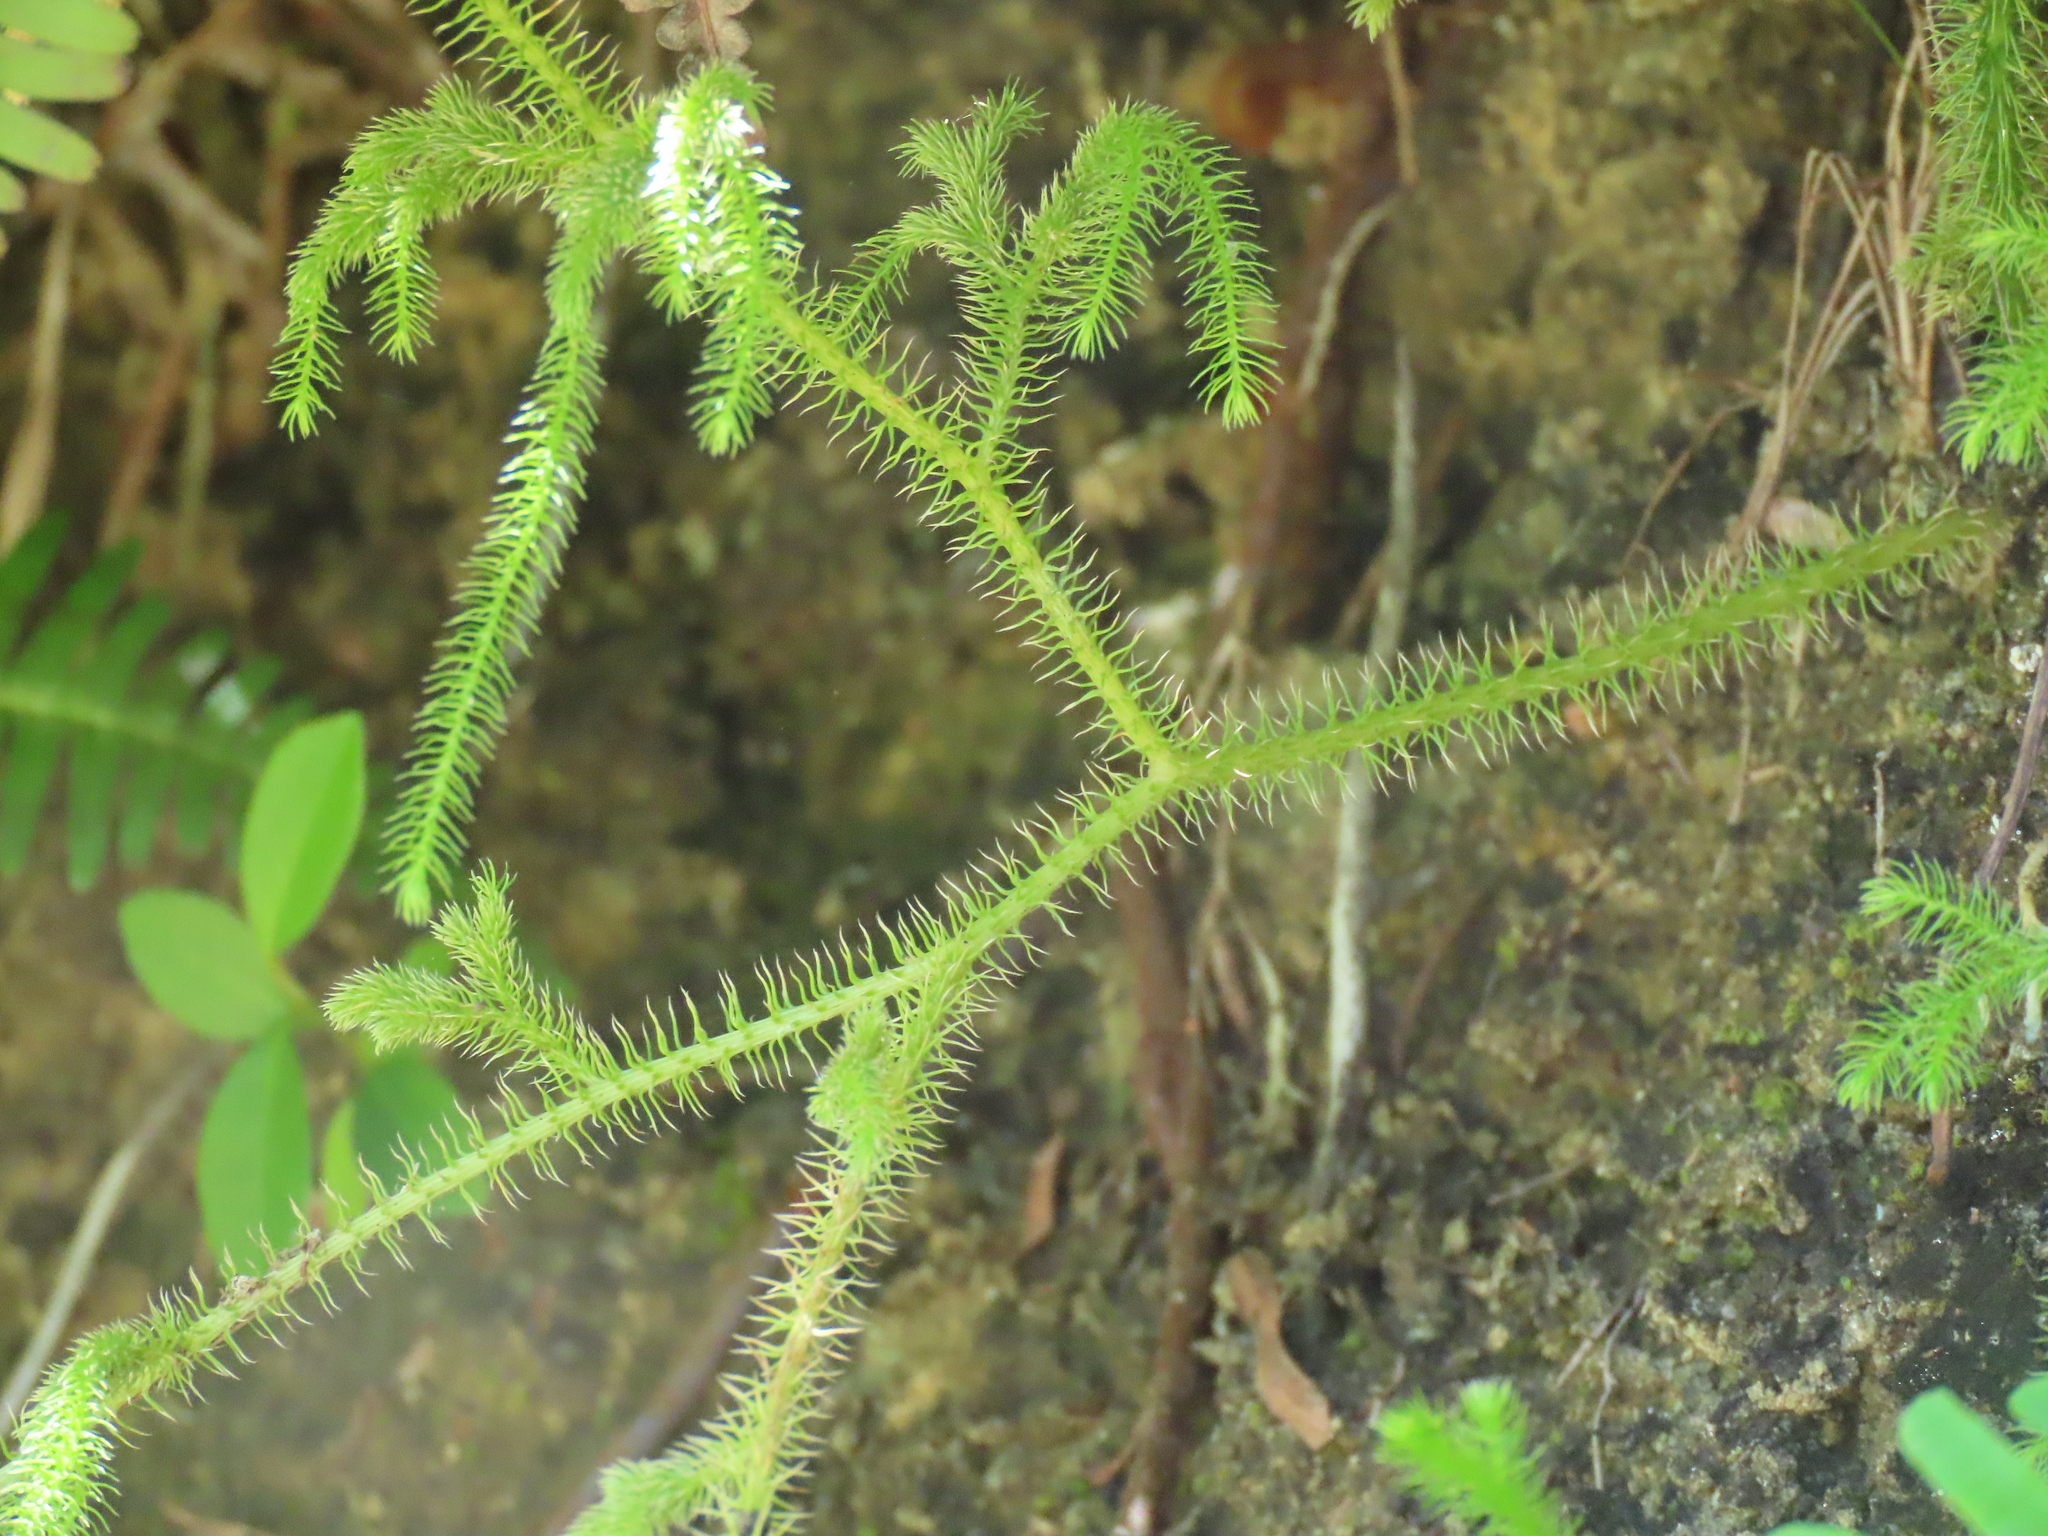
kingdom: Plantae
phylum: Tracheophyta
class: Lycopodiopsida
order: Lycopodiales
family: Lycopodiaceae
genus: Palhinhaea
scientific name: Palhinhaea cernua
